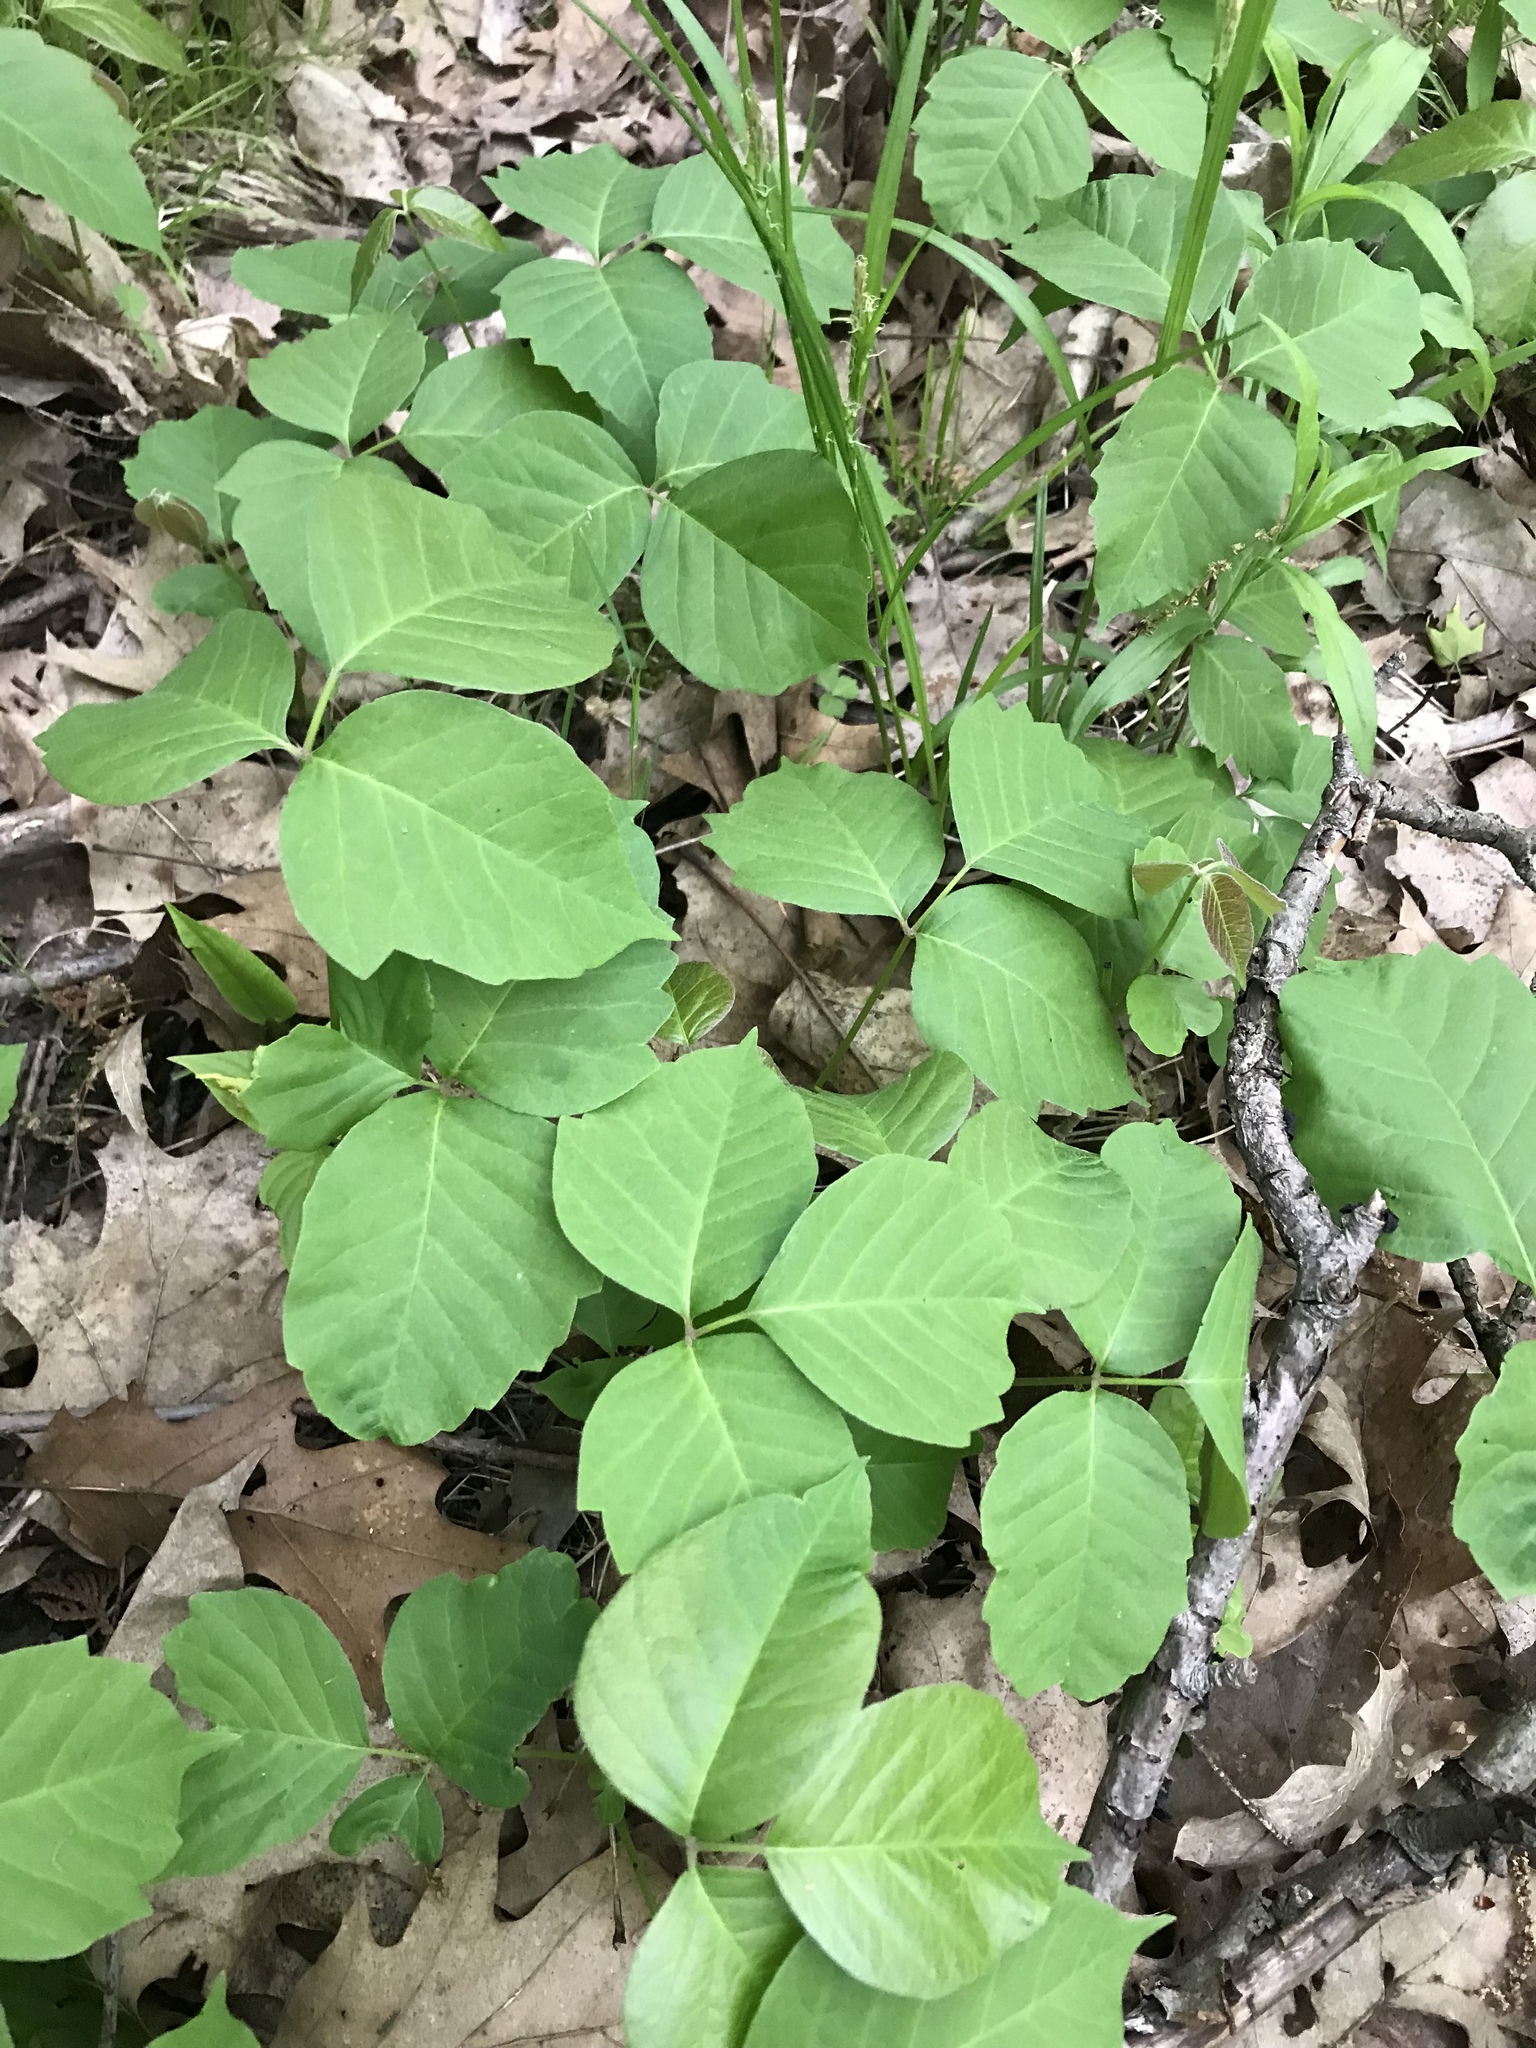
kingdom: Plantae
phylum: Tracheophyta
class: Magnoliopsida
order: Sapindales
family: Anacardiaceae
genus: Toxicodendron
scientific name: Toxicodendron radicans
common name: Poison ivy
